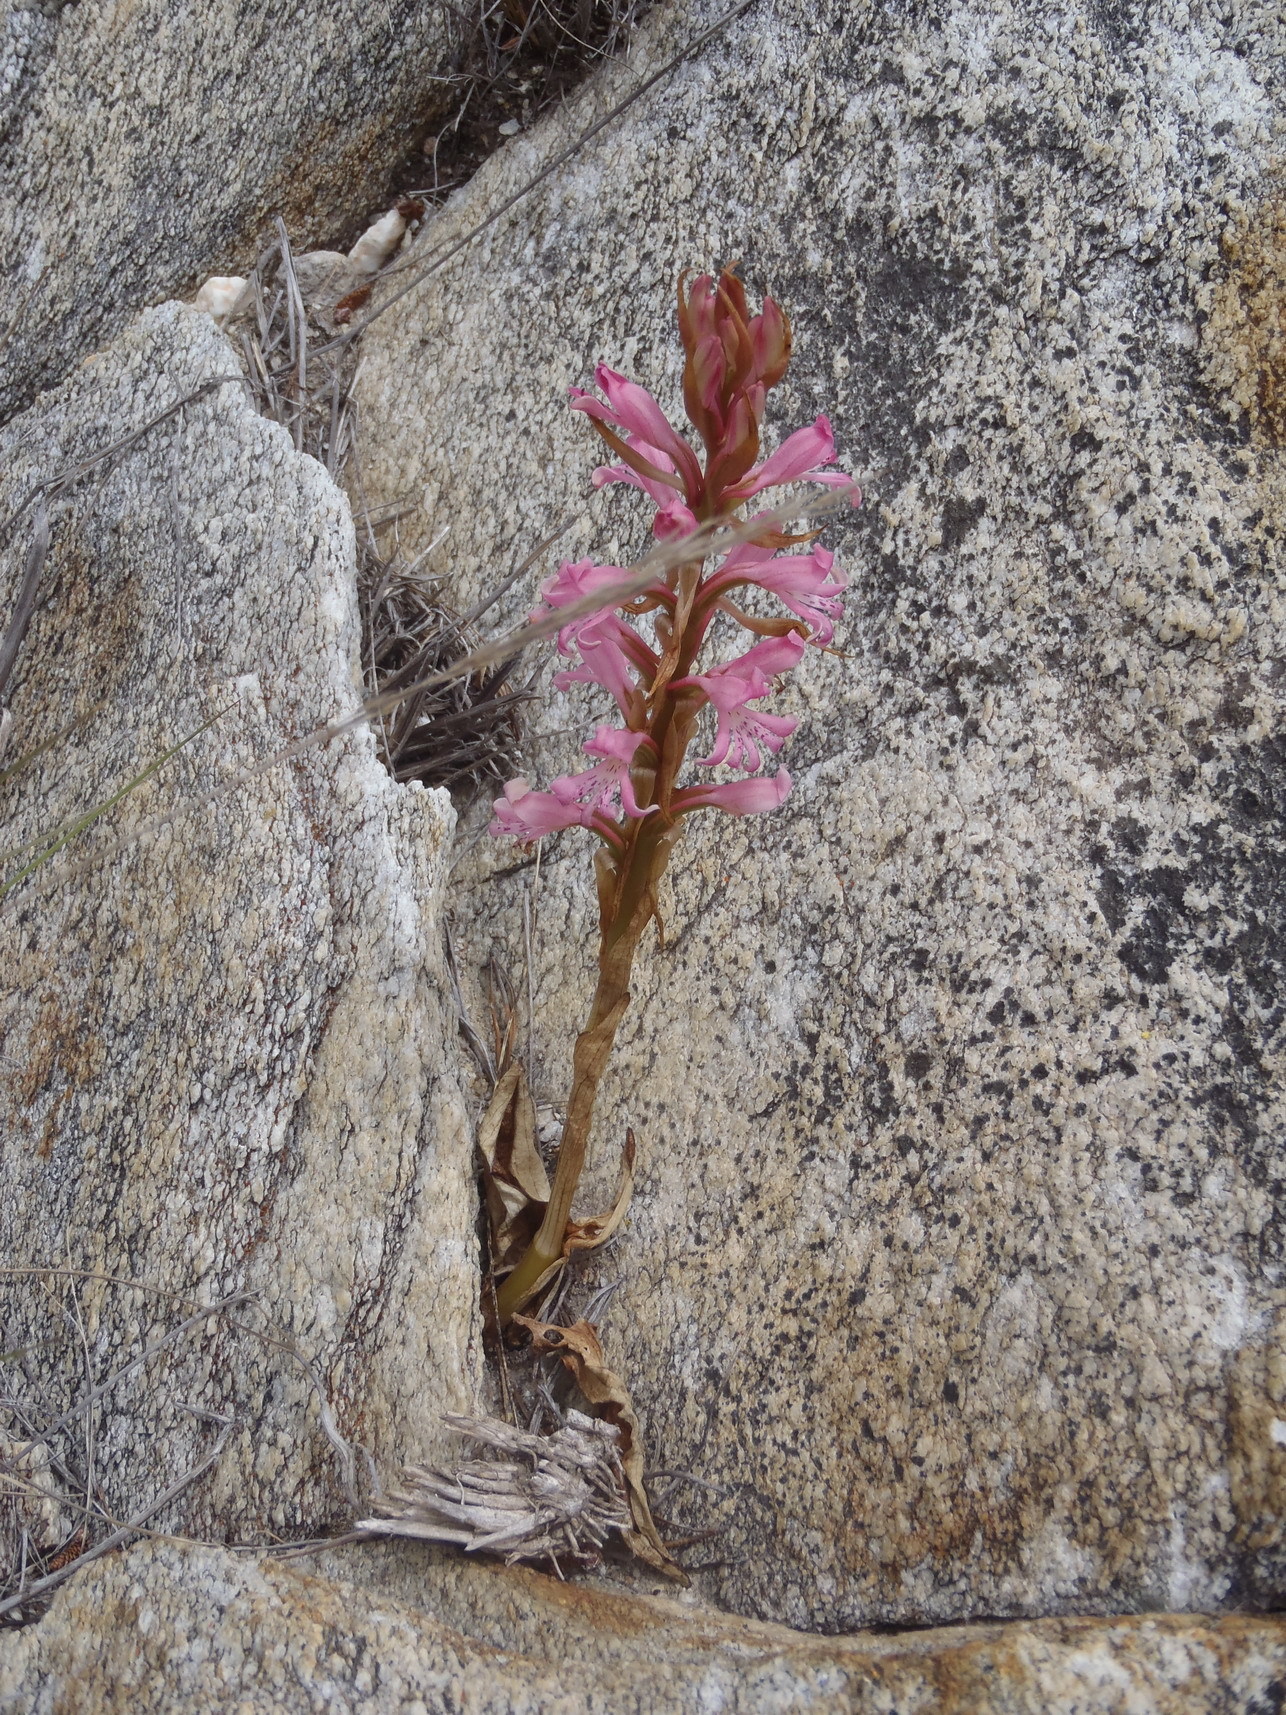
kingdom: Plantae
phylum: Tracheophyta
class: Liliopsida
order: Asparagales
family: Orchidaceae
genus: Satyrium
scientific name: Satyrium erectum
